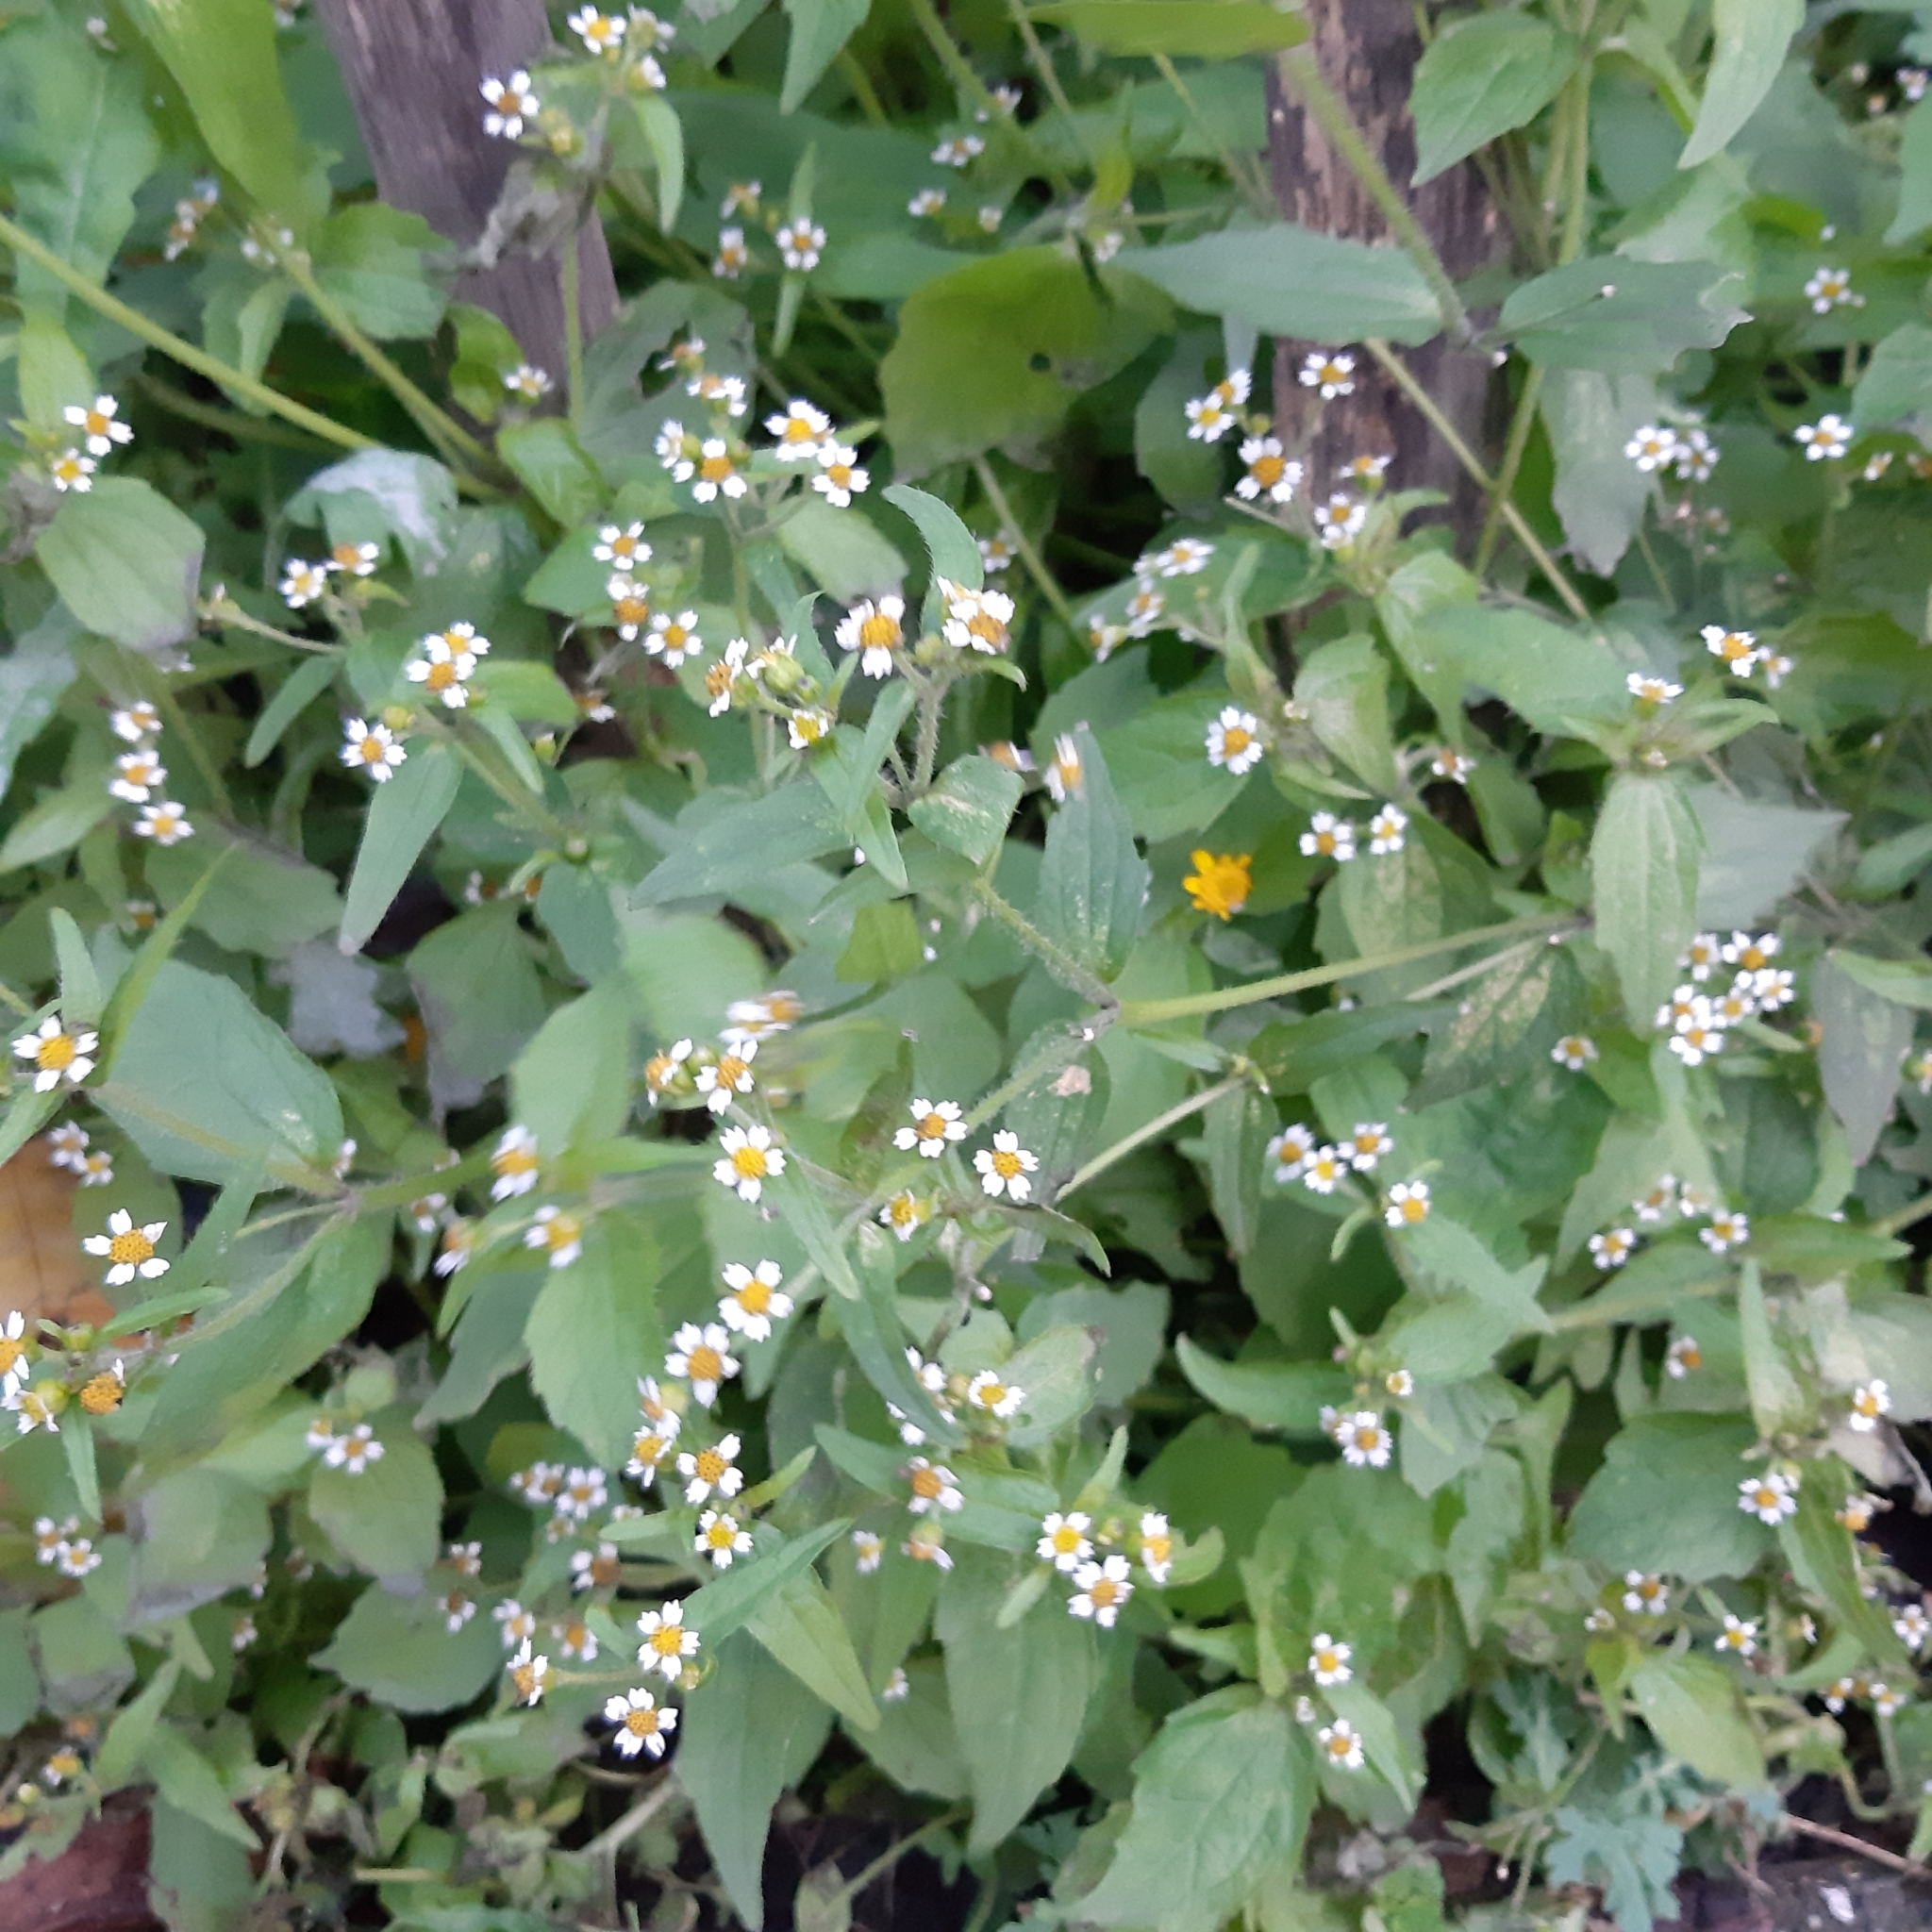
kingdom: Plantae
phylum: Tracheophyta
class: Magnoliopsida
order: Asterales
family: Asteraceae
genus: Galinsoga
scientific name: Galinsoga quadriradiata
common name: Shaggy soldier
